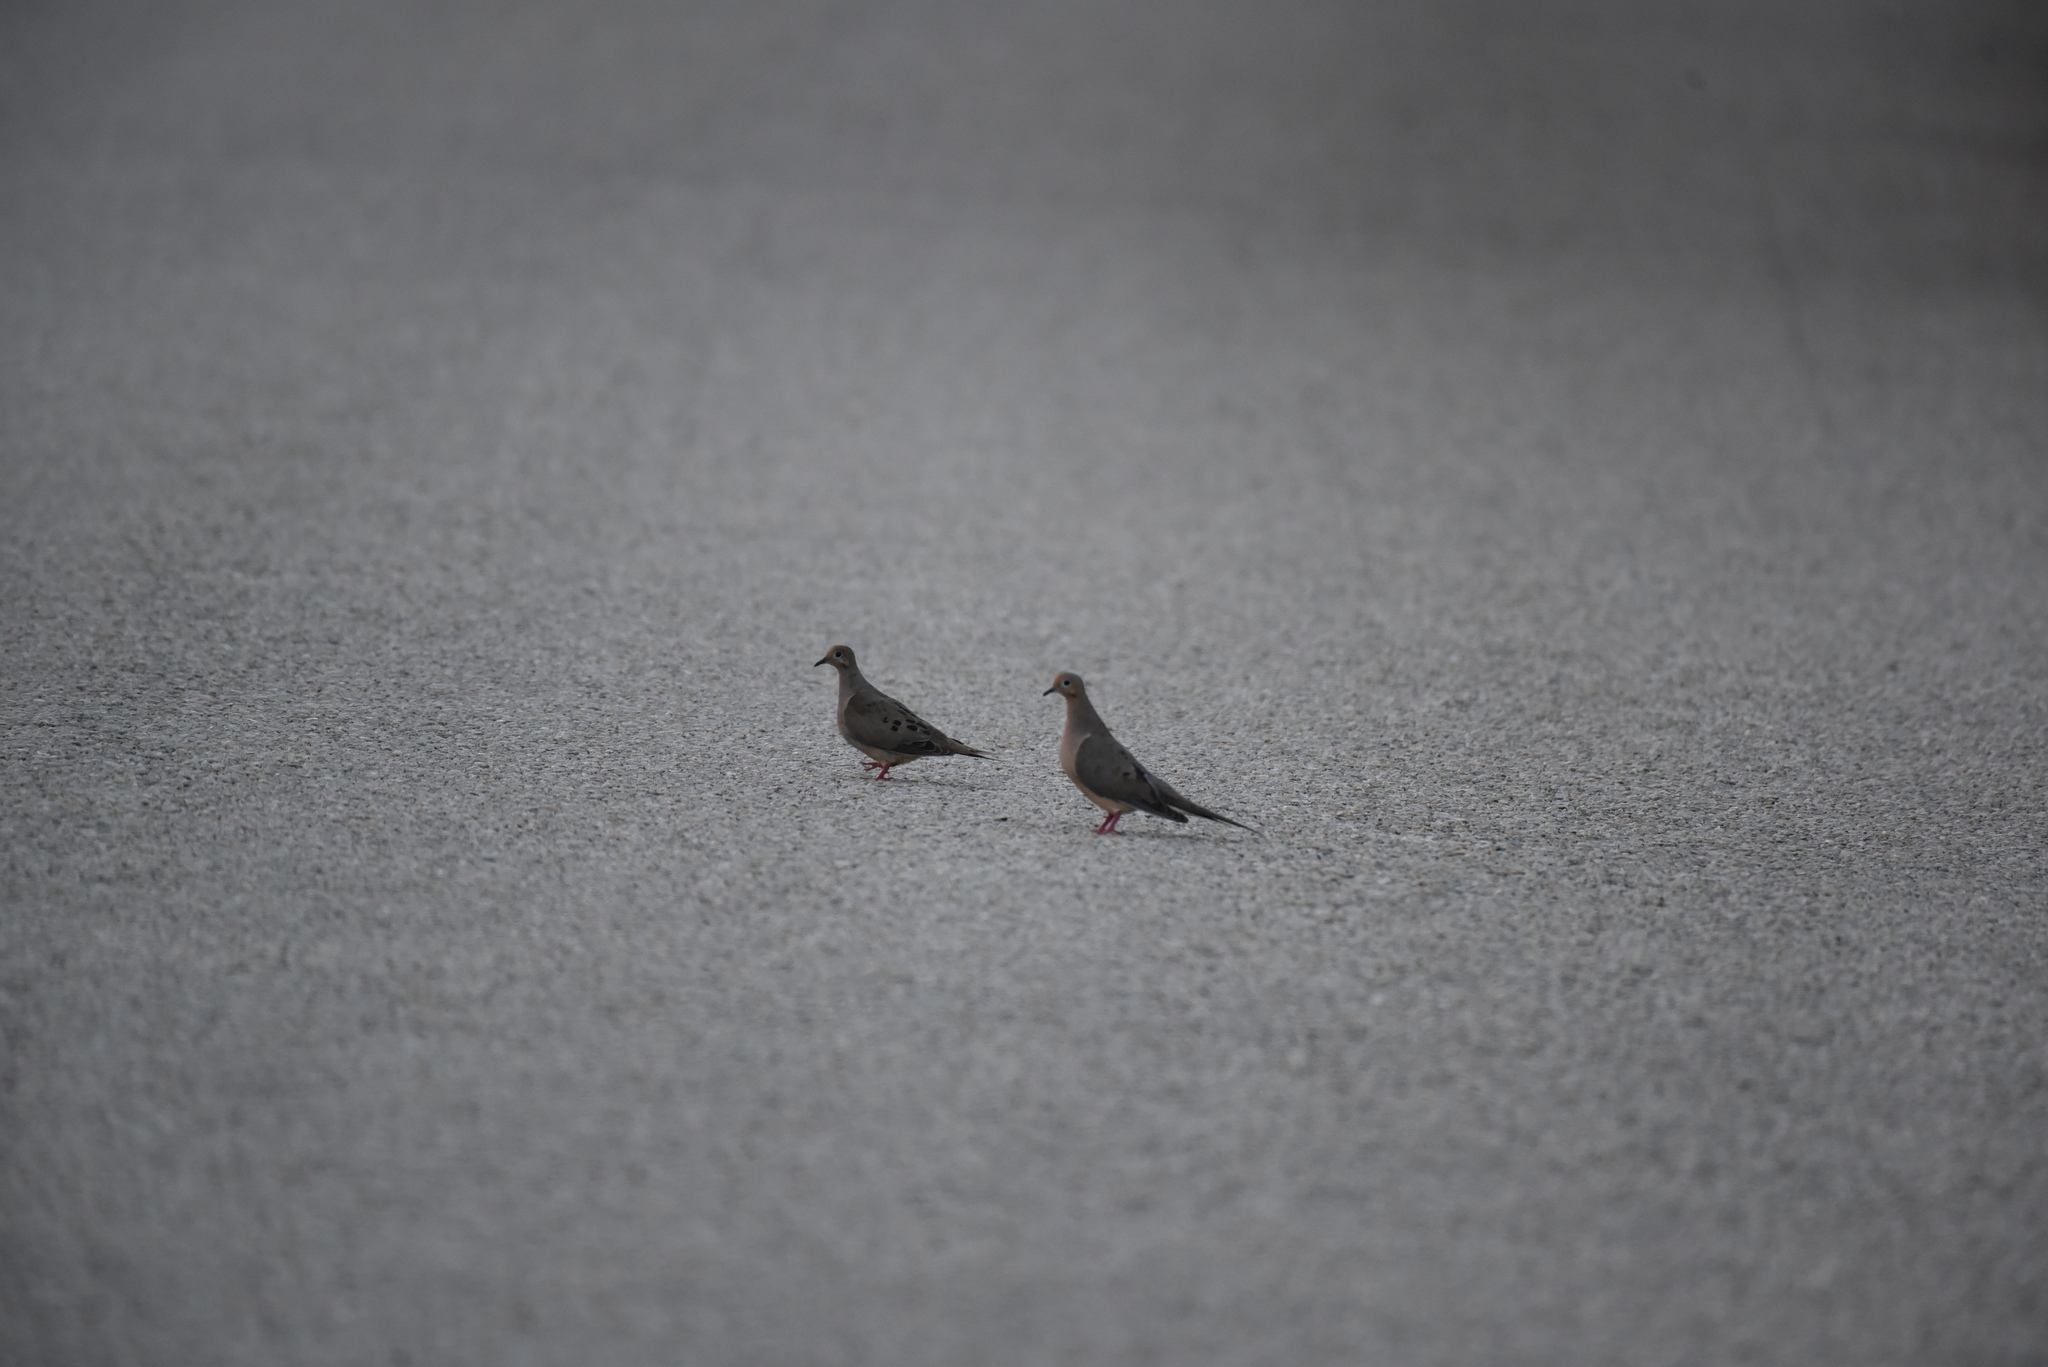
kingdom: Animalia
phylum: Chordata
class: Aves
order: Columbiformes
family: Columbidae
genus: Zenaida
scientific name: Zenaida macroura
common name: Mourning dove
